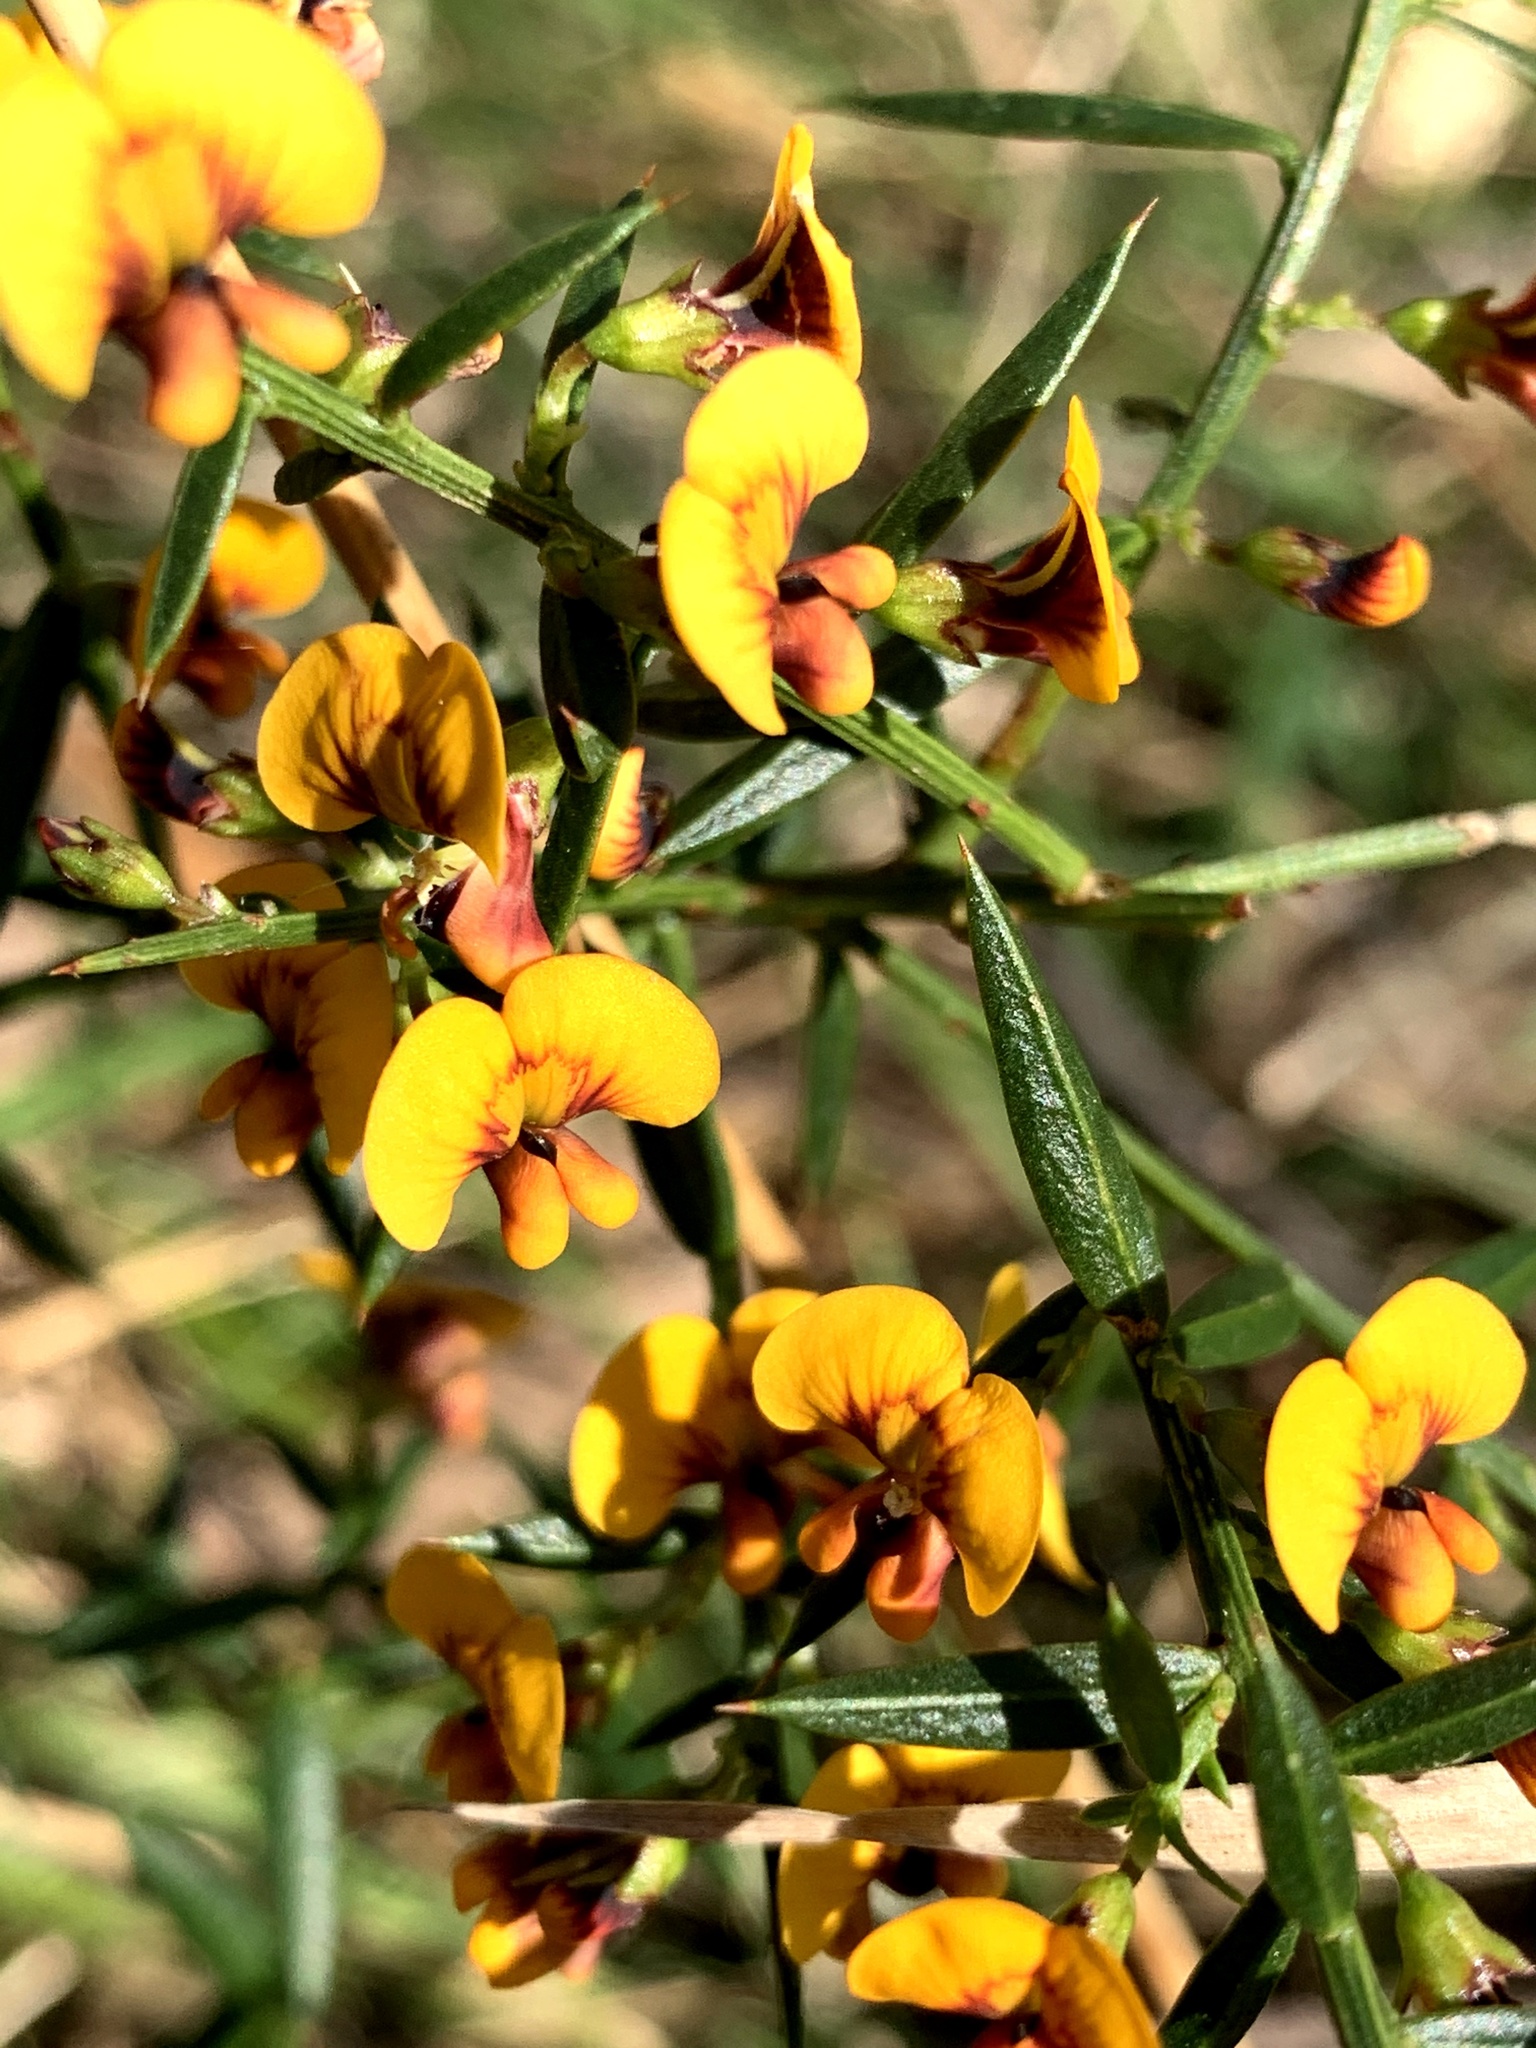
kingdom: Plantae
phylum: Tracheophyta
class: Magnoliopsida
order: Fabales
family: Fabaceae
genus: Daviesia
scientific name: Daviesia ulicifolia
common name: Gorse bitter-pea
